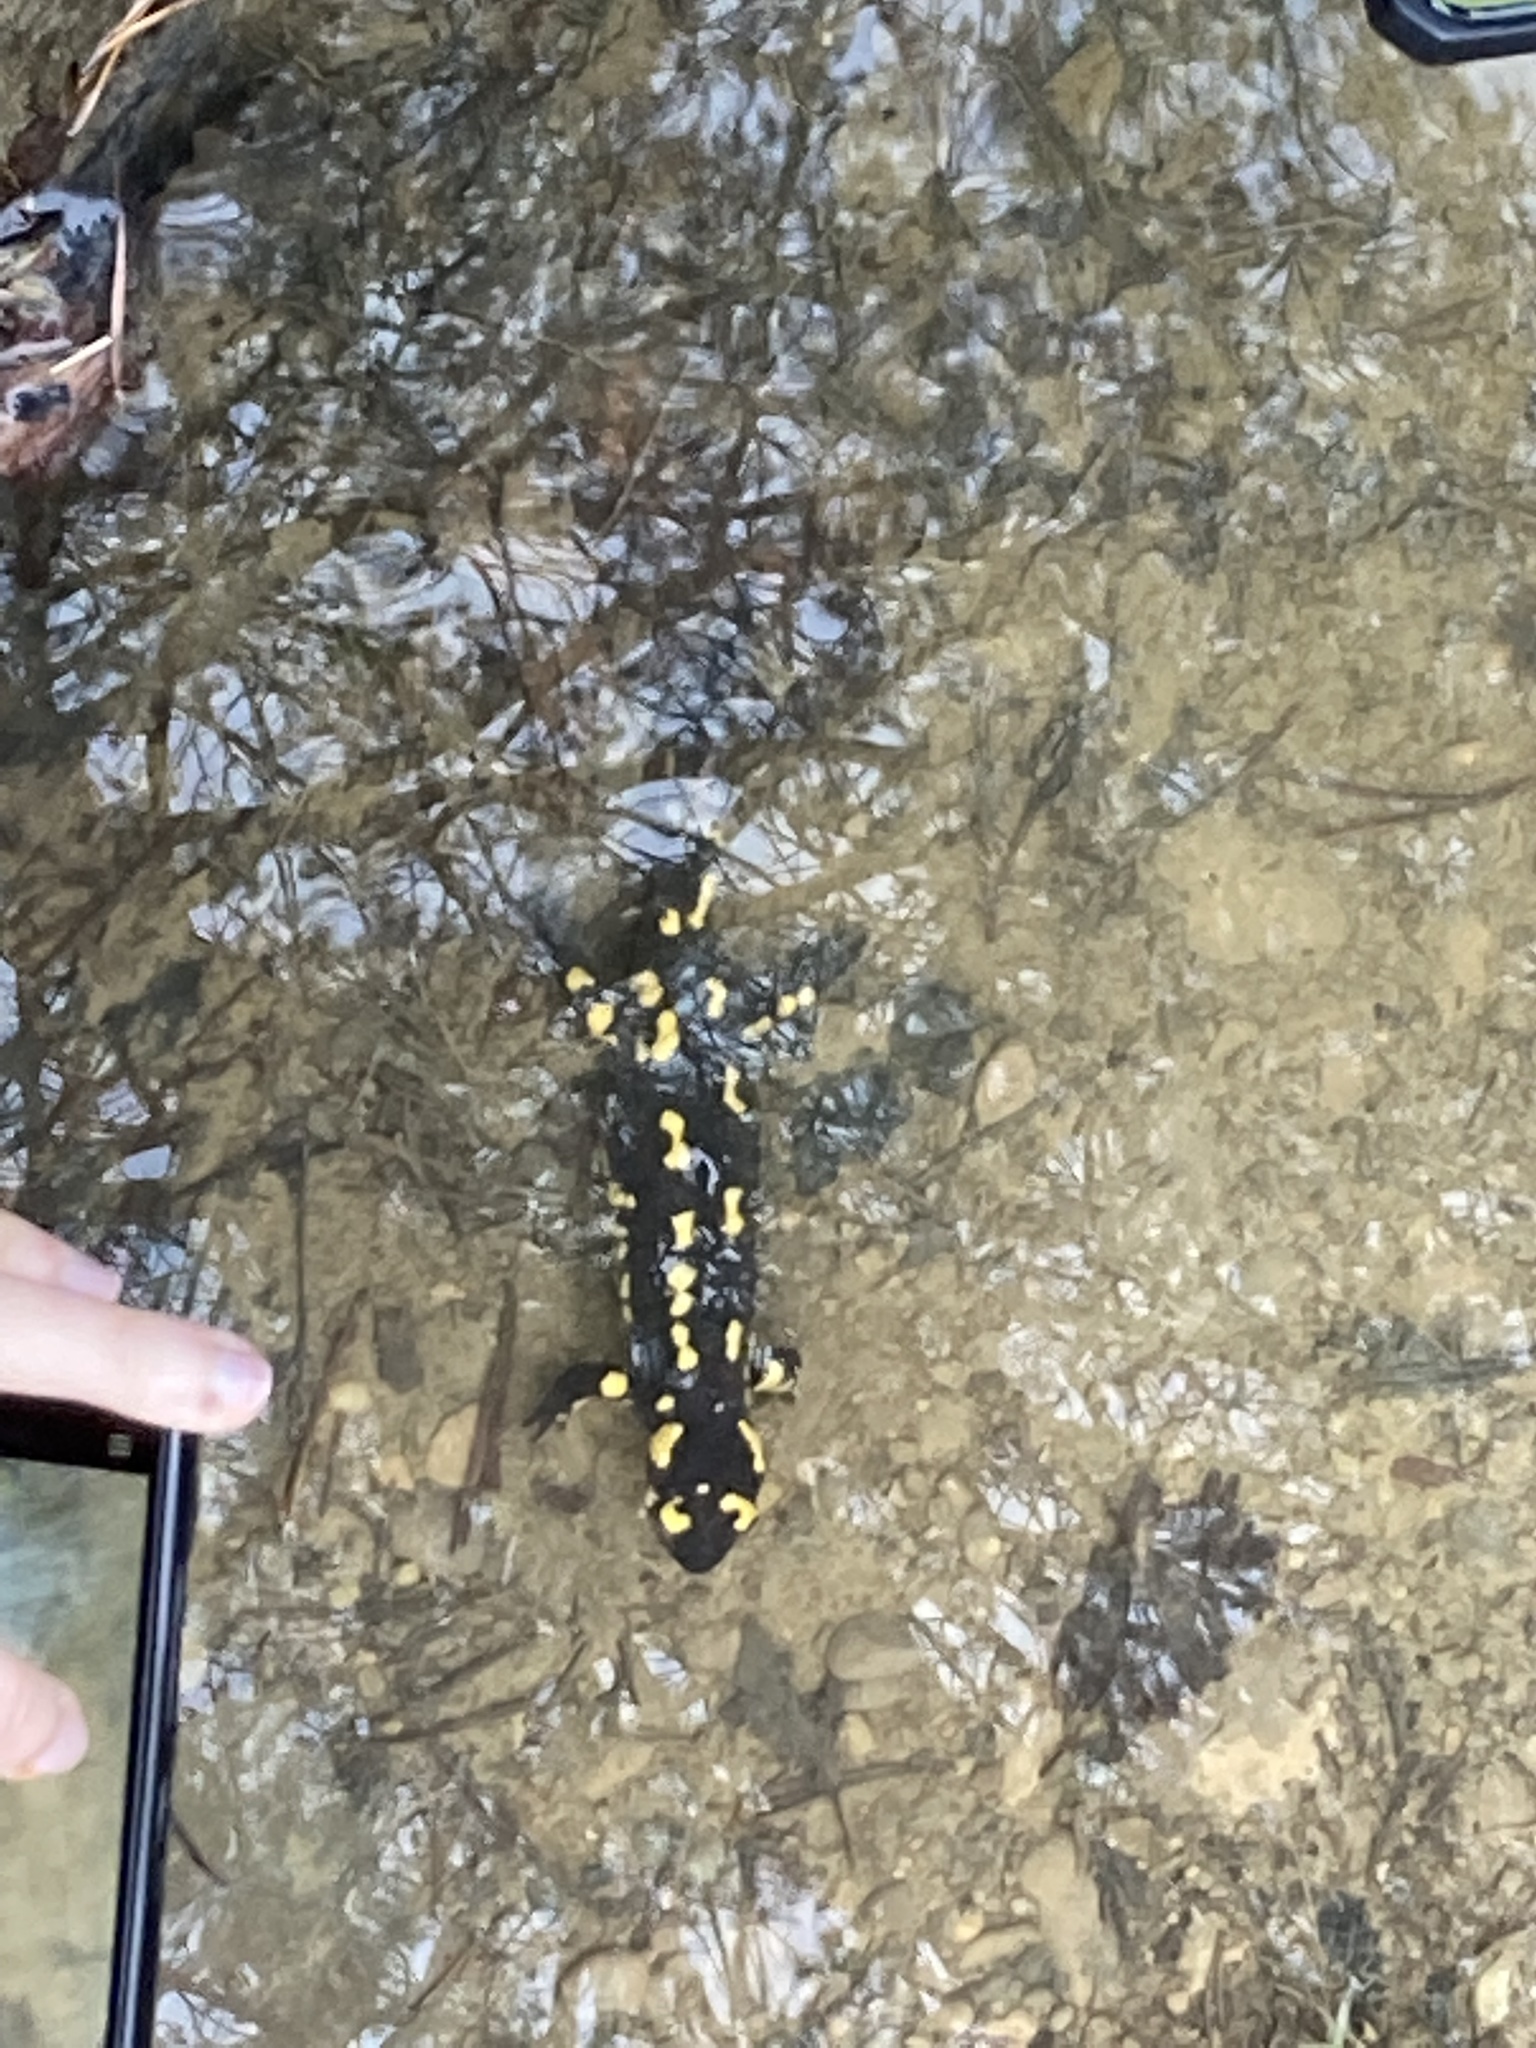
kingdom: Animalia
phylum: Chordata
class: Amphibia
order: Caudata
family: Salamandridae
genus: Salamandra
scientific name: Salamandra salamandra
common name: Fire salamander
